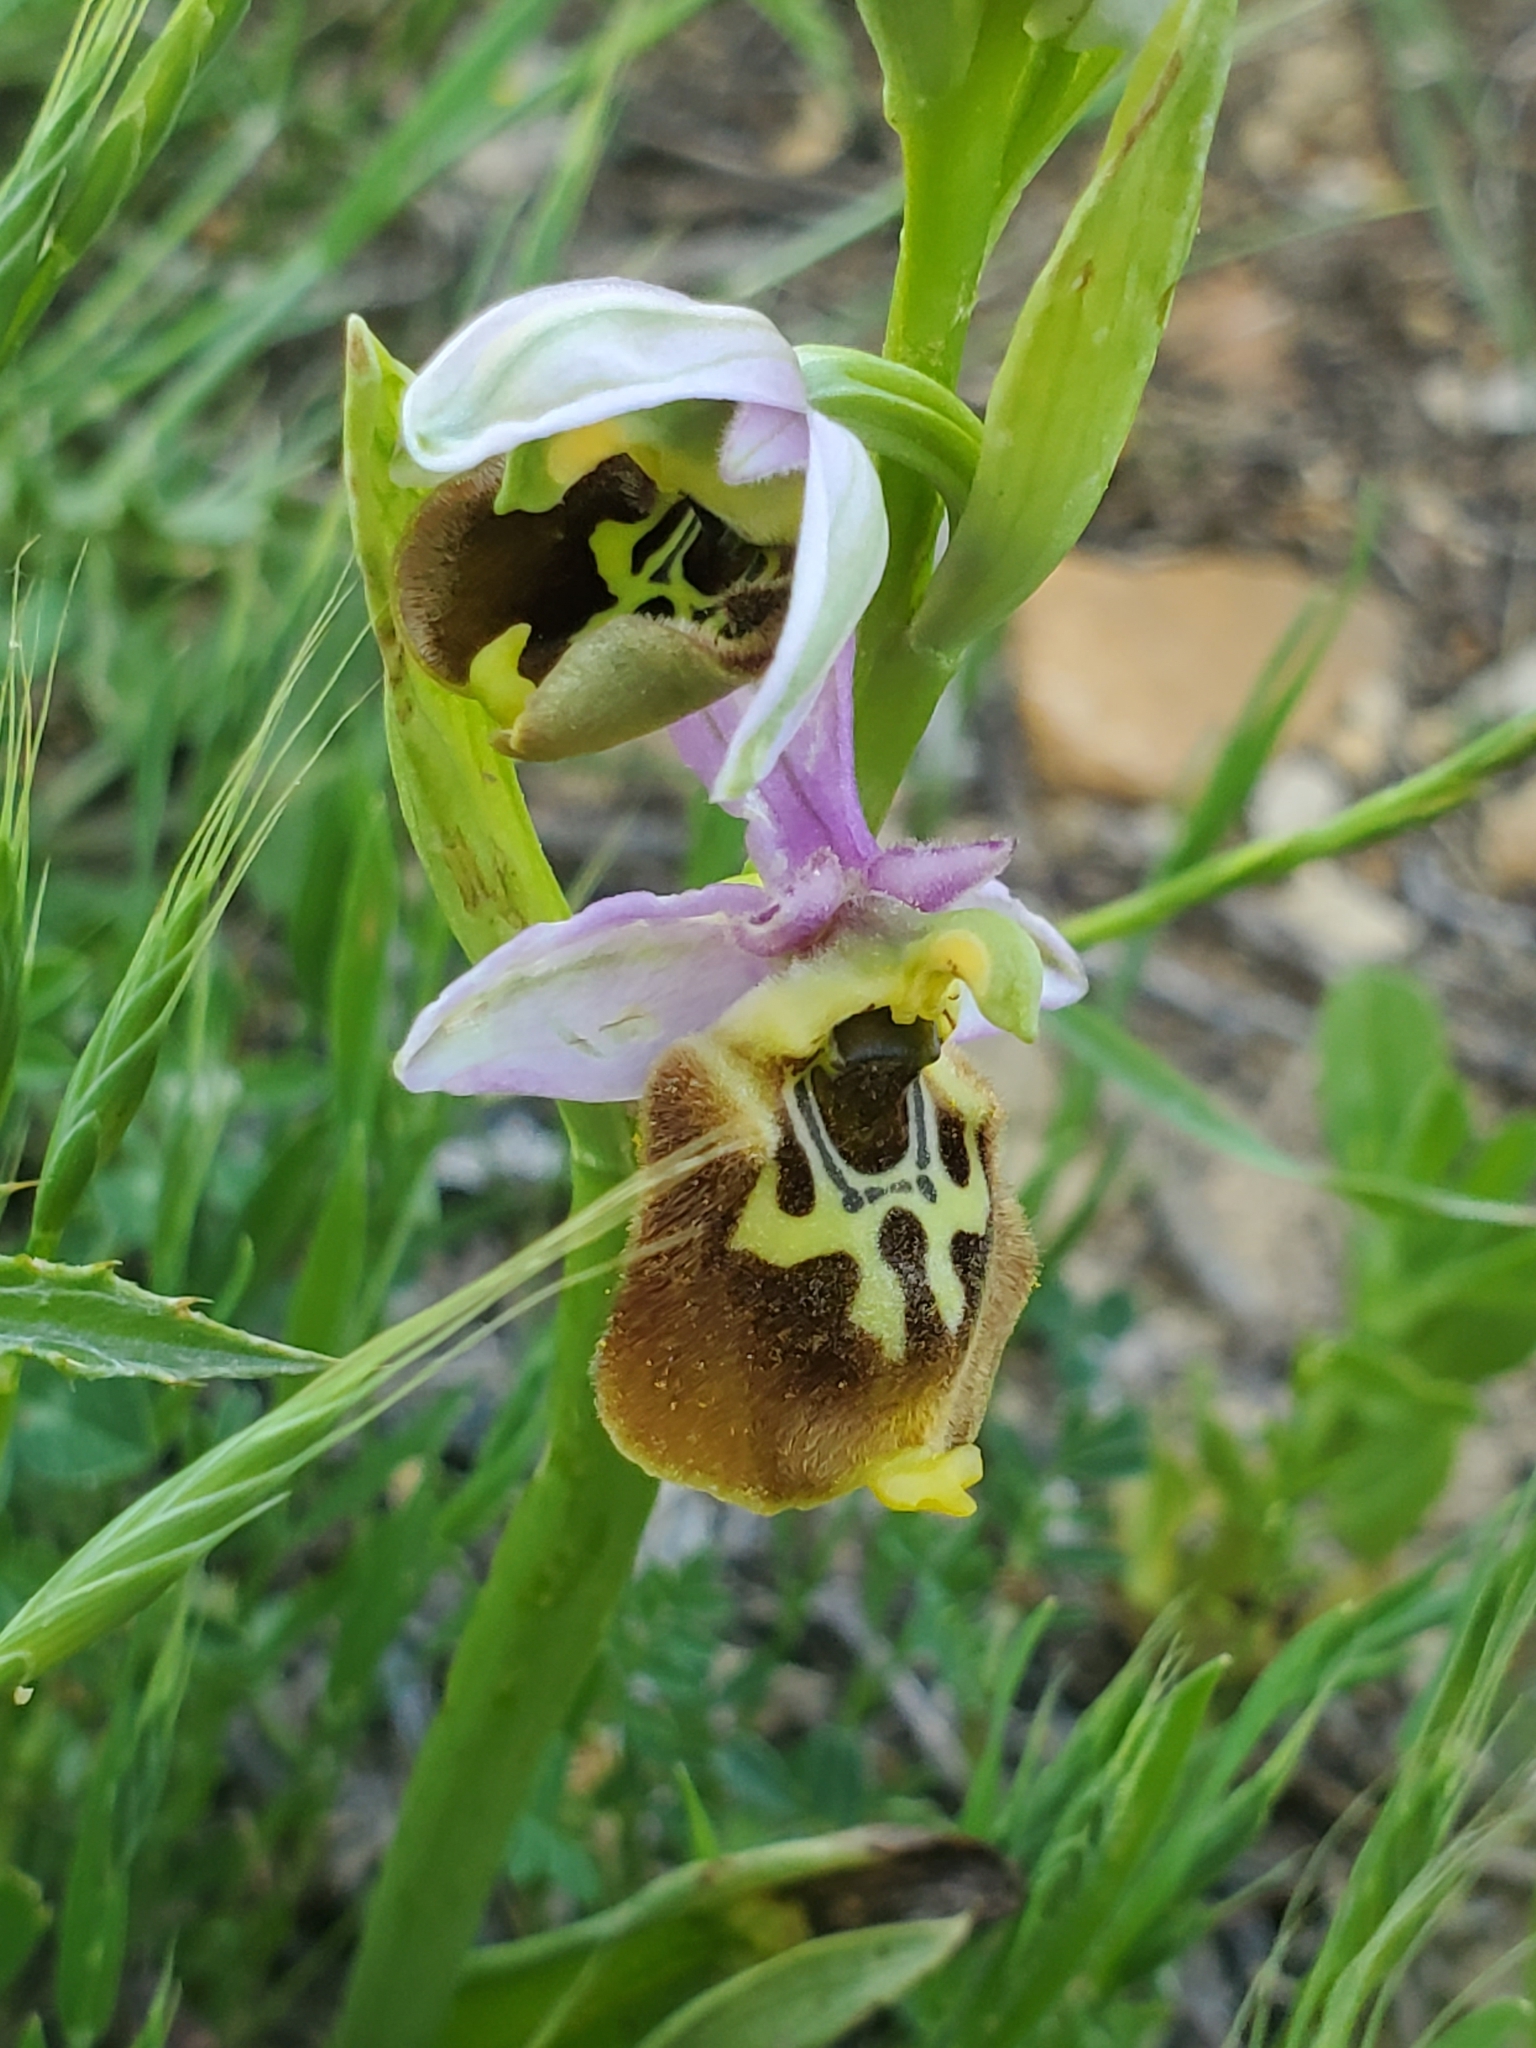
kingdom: Plantae
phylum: Tracheophyta
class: Liliopsida
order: Asparagales
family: Orchidaceae
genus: Ophrys
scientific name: Ophrys holosericea
